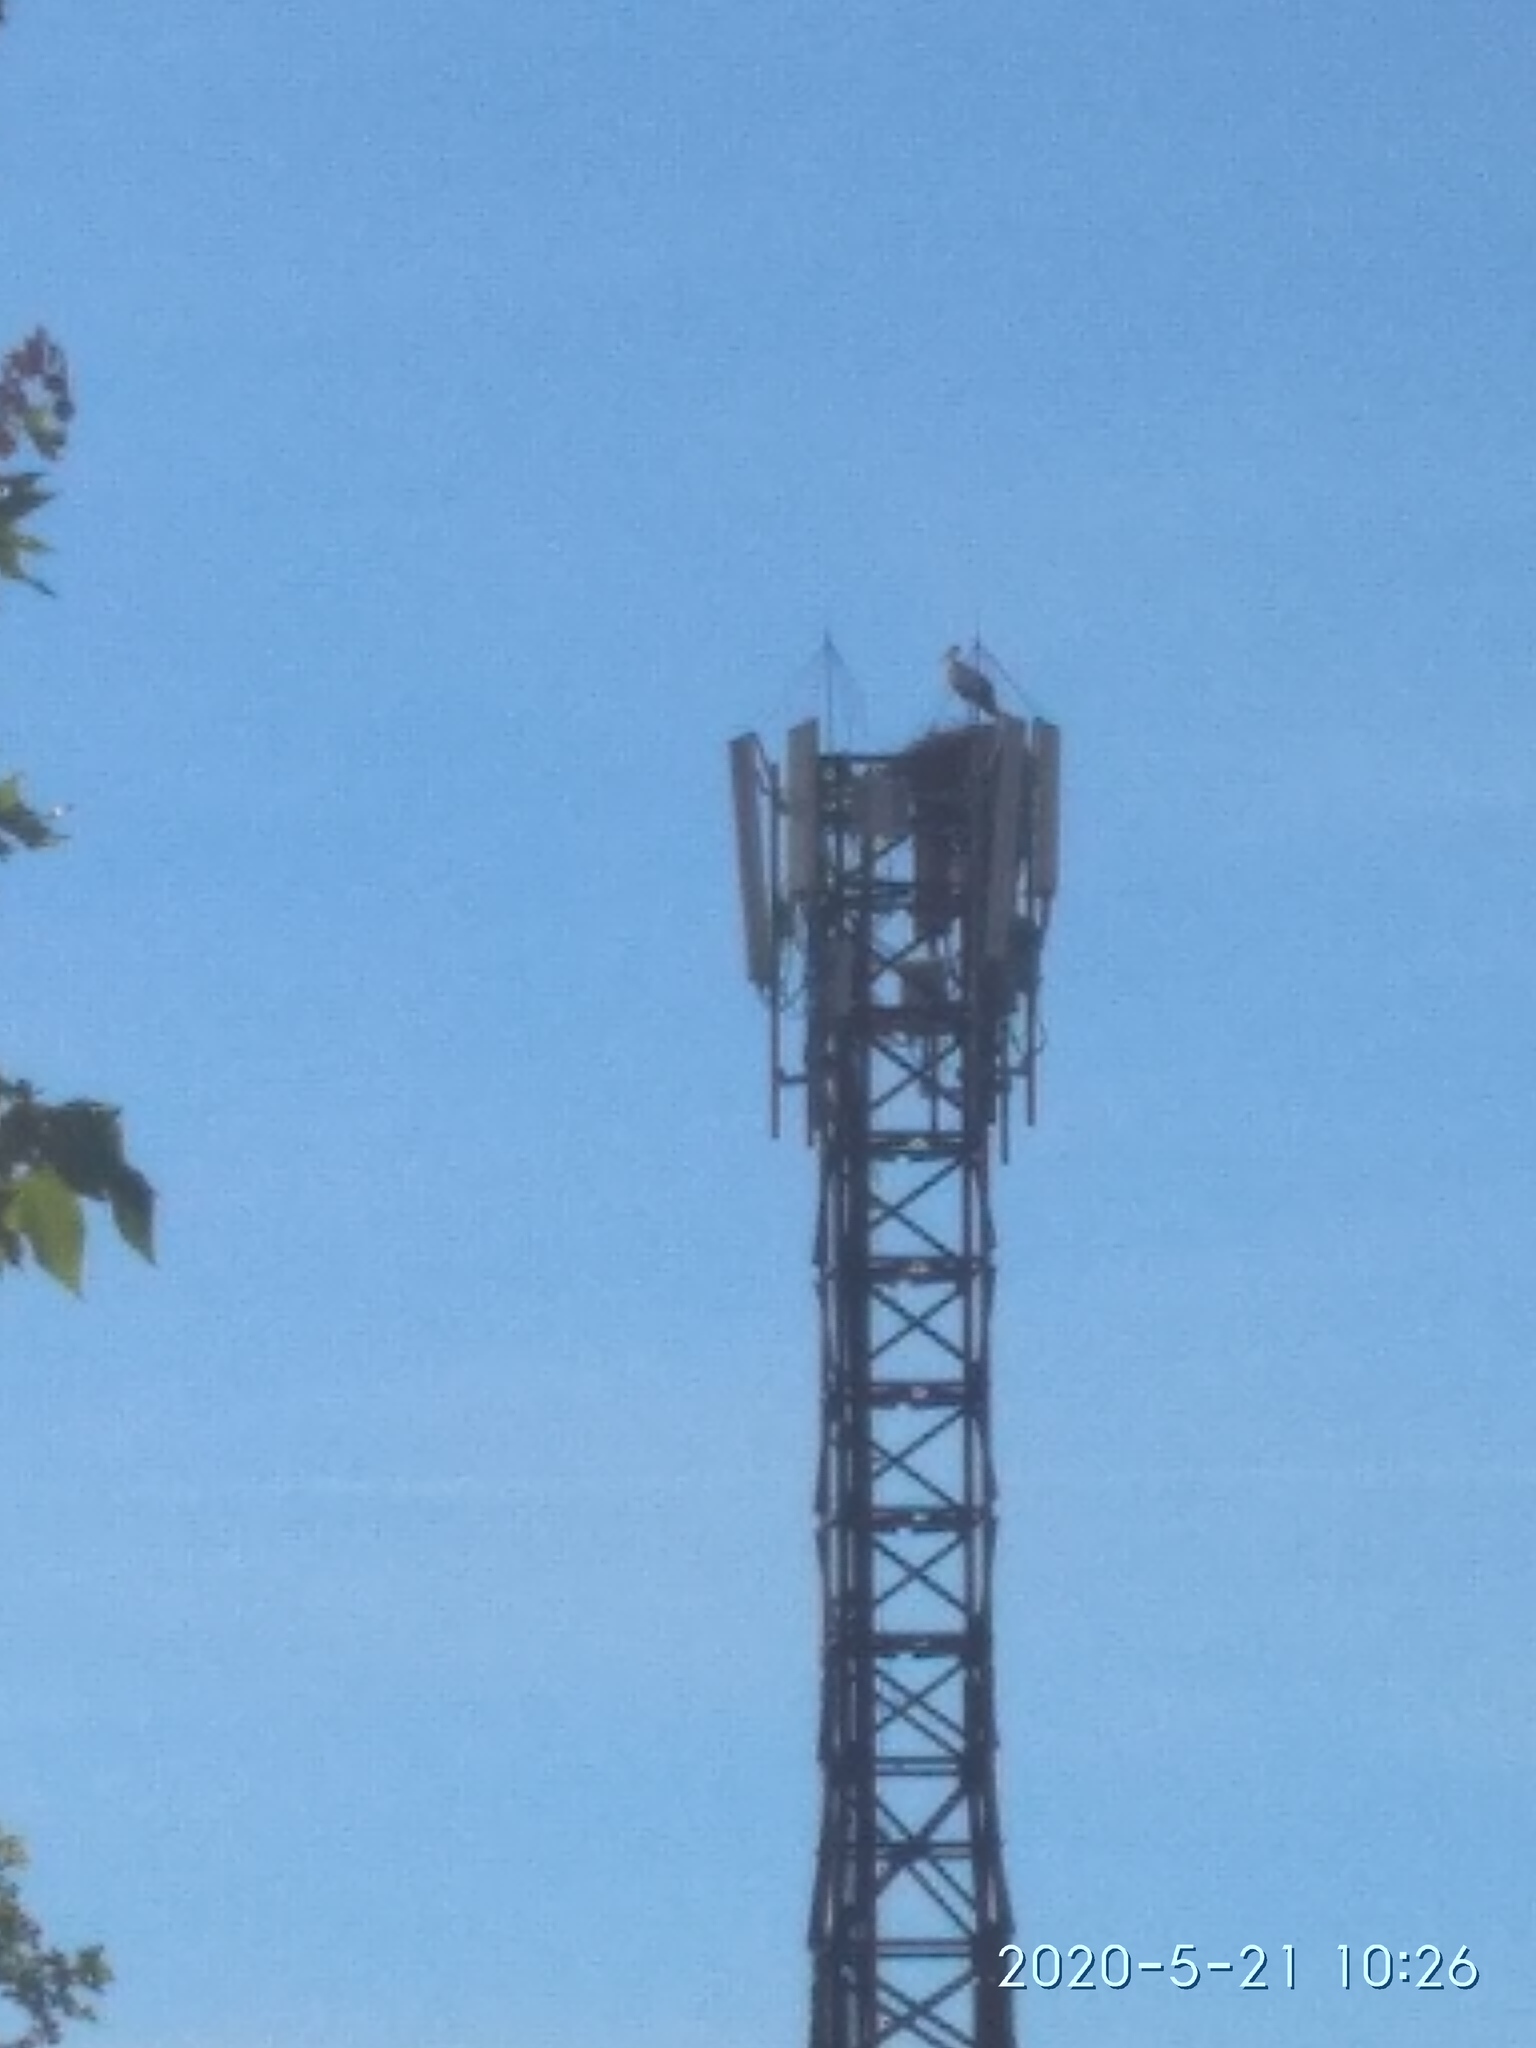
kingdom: Animalia
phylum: Chordata
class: Aves
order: Ciconiiformes
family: Ciconiidae
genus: Ciconia
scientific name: Ciconia ciconia
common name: White stork
